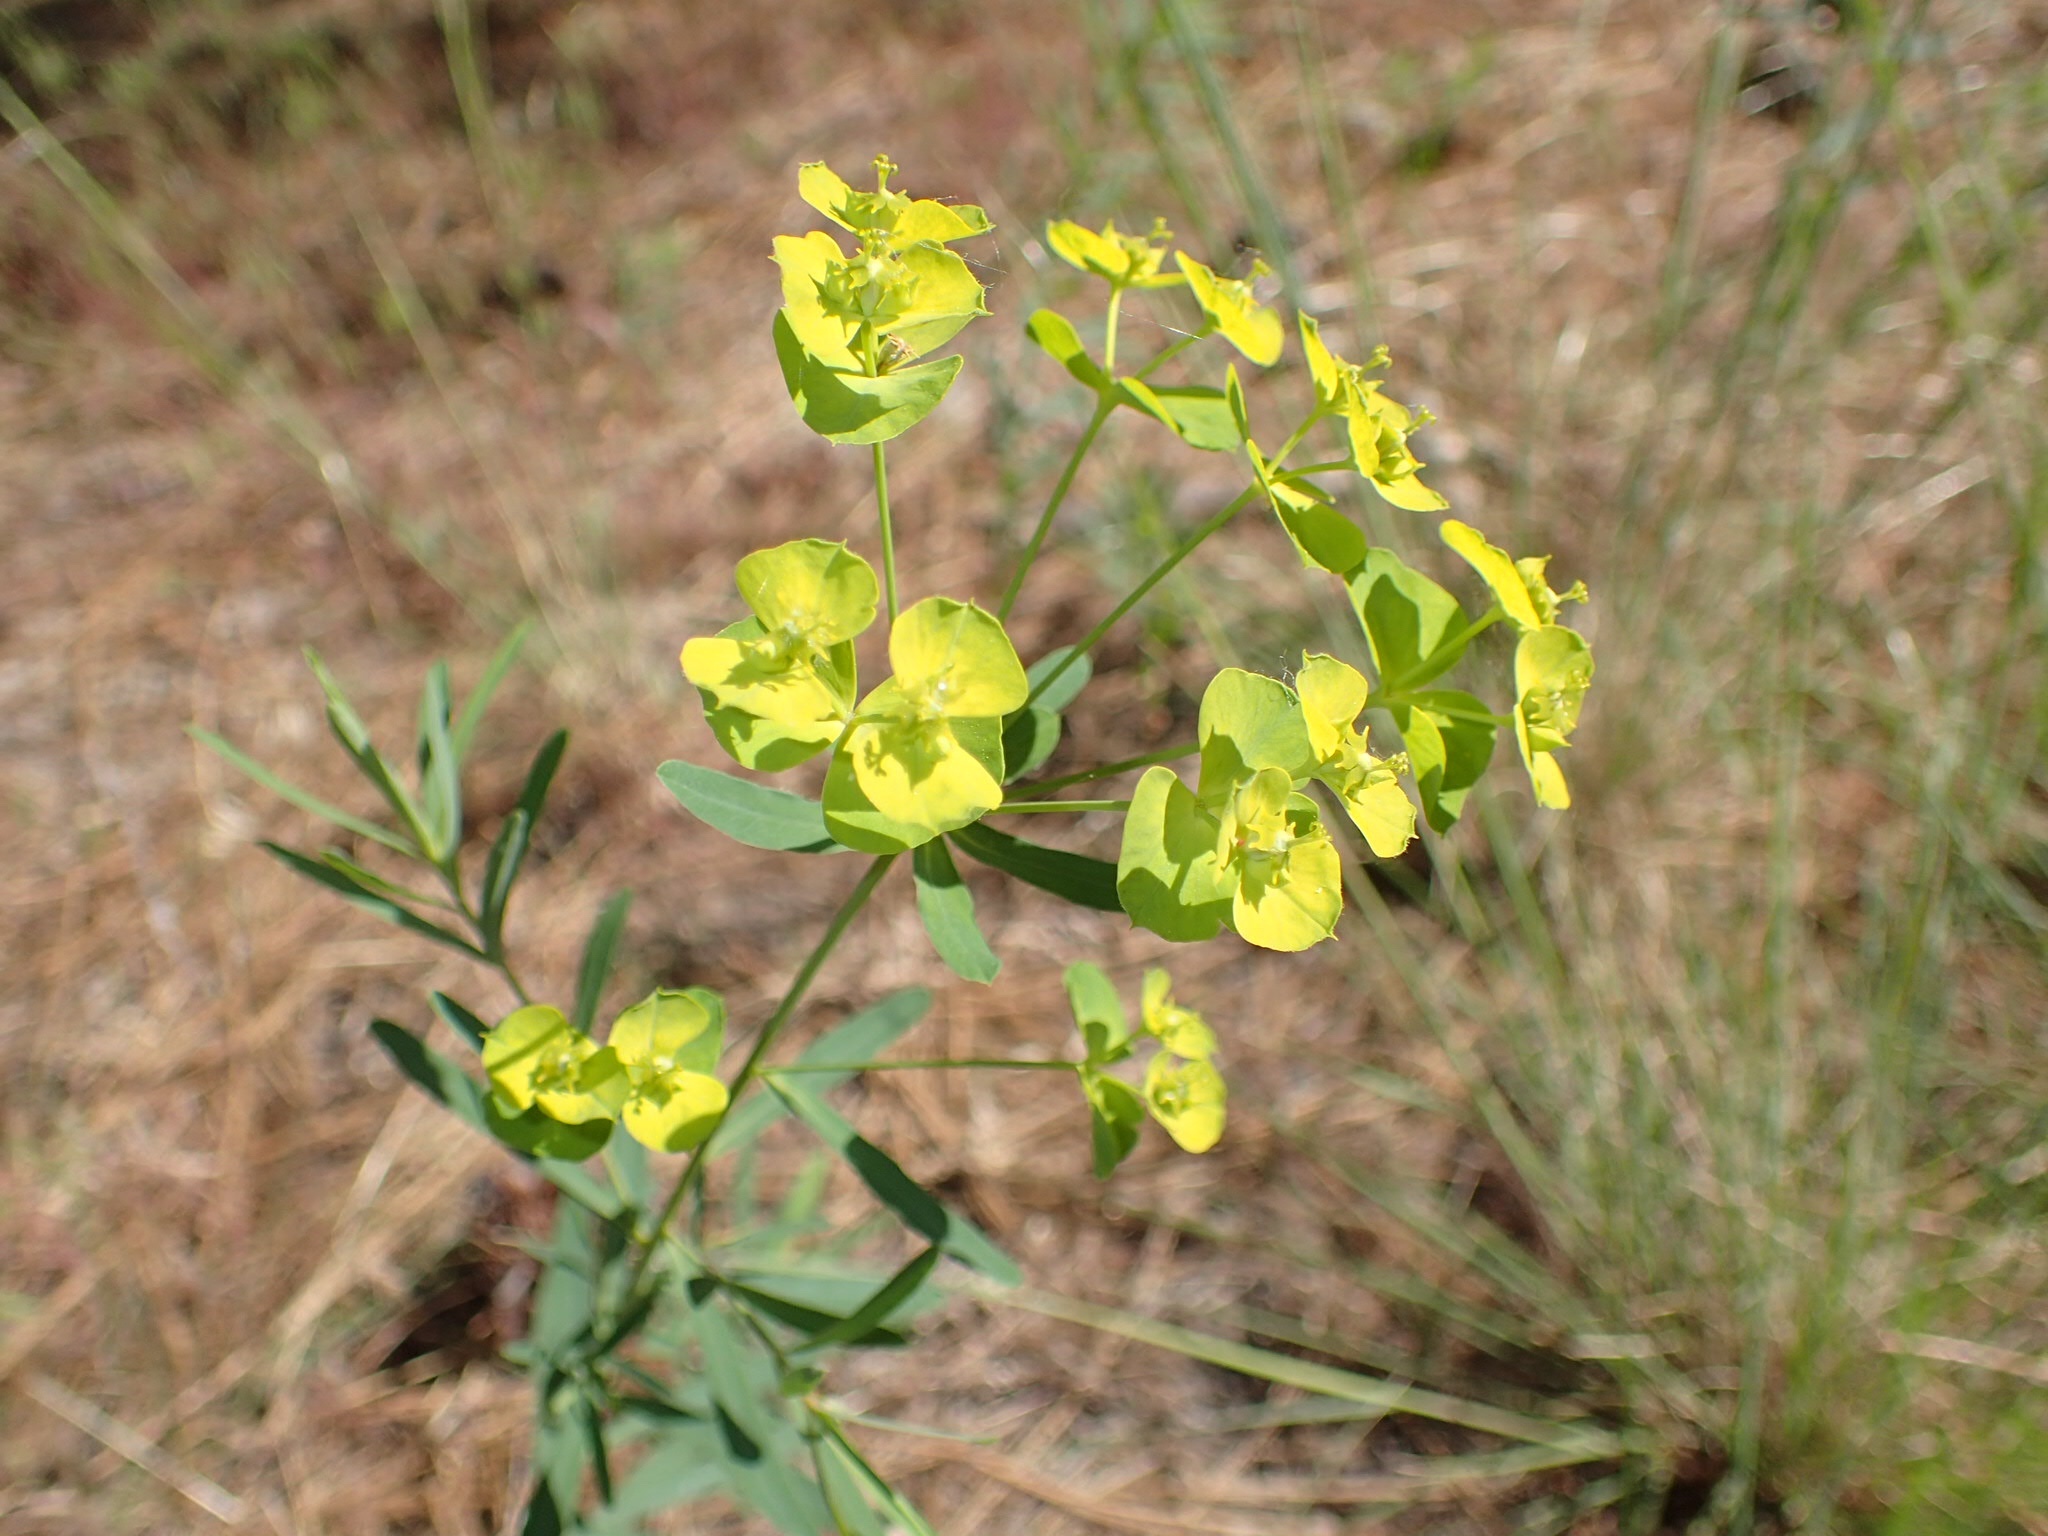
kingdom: Plantae
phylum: Tracheophyta
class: Magnoliopsida
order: Malpighiales
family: Euphorbiaceae
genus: Euphorbia
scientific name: Euphorbia virgata
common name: Leafy spurge
